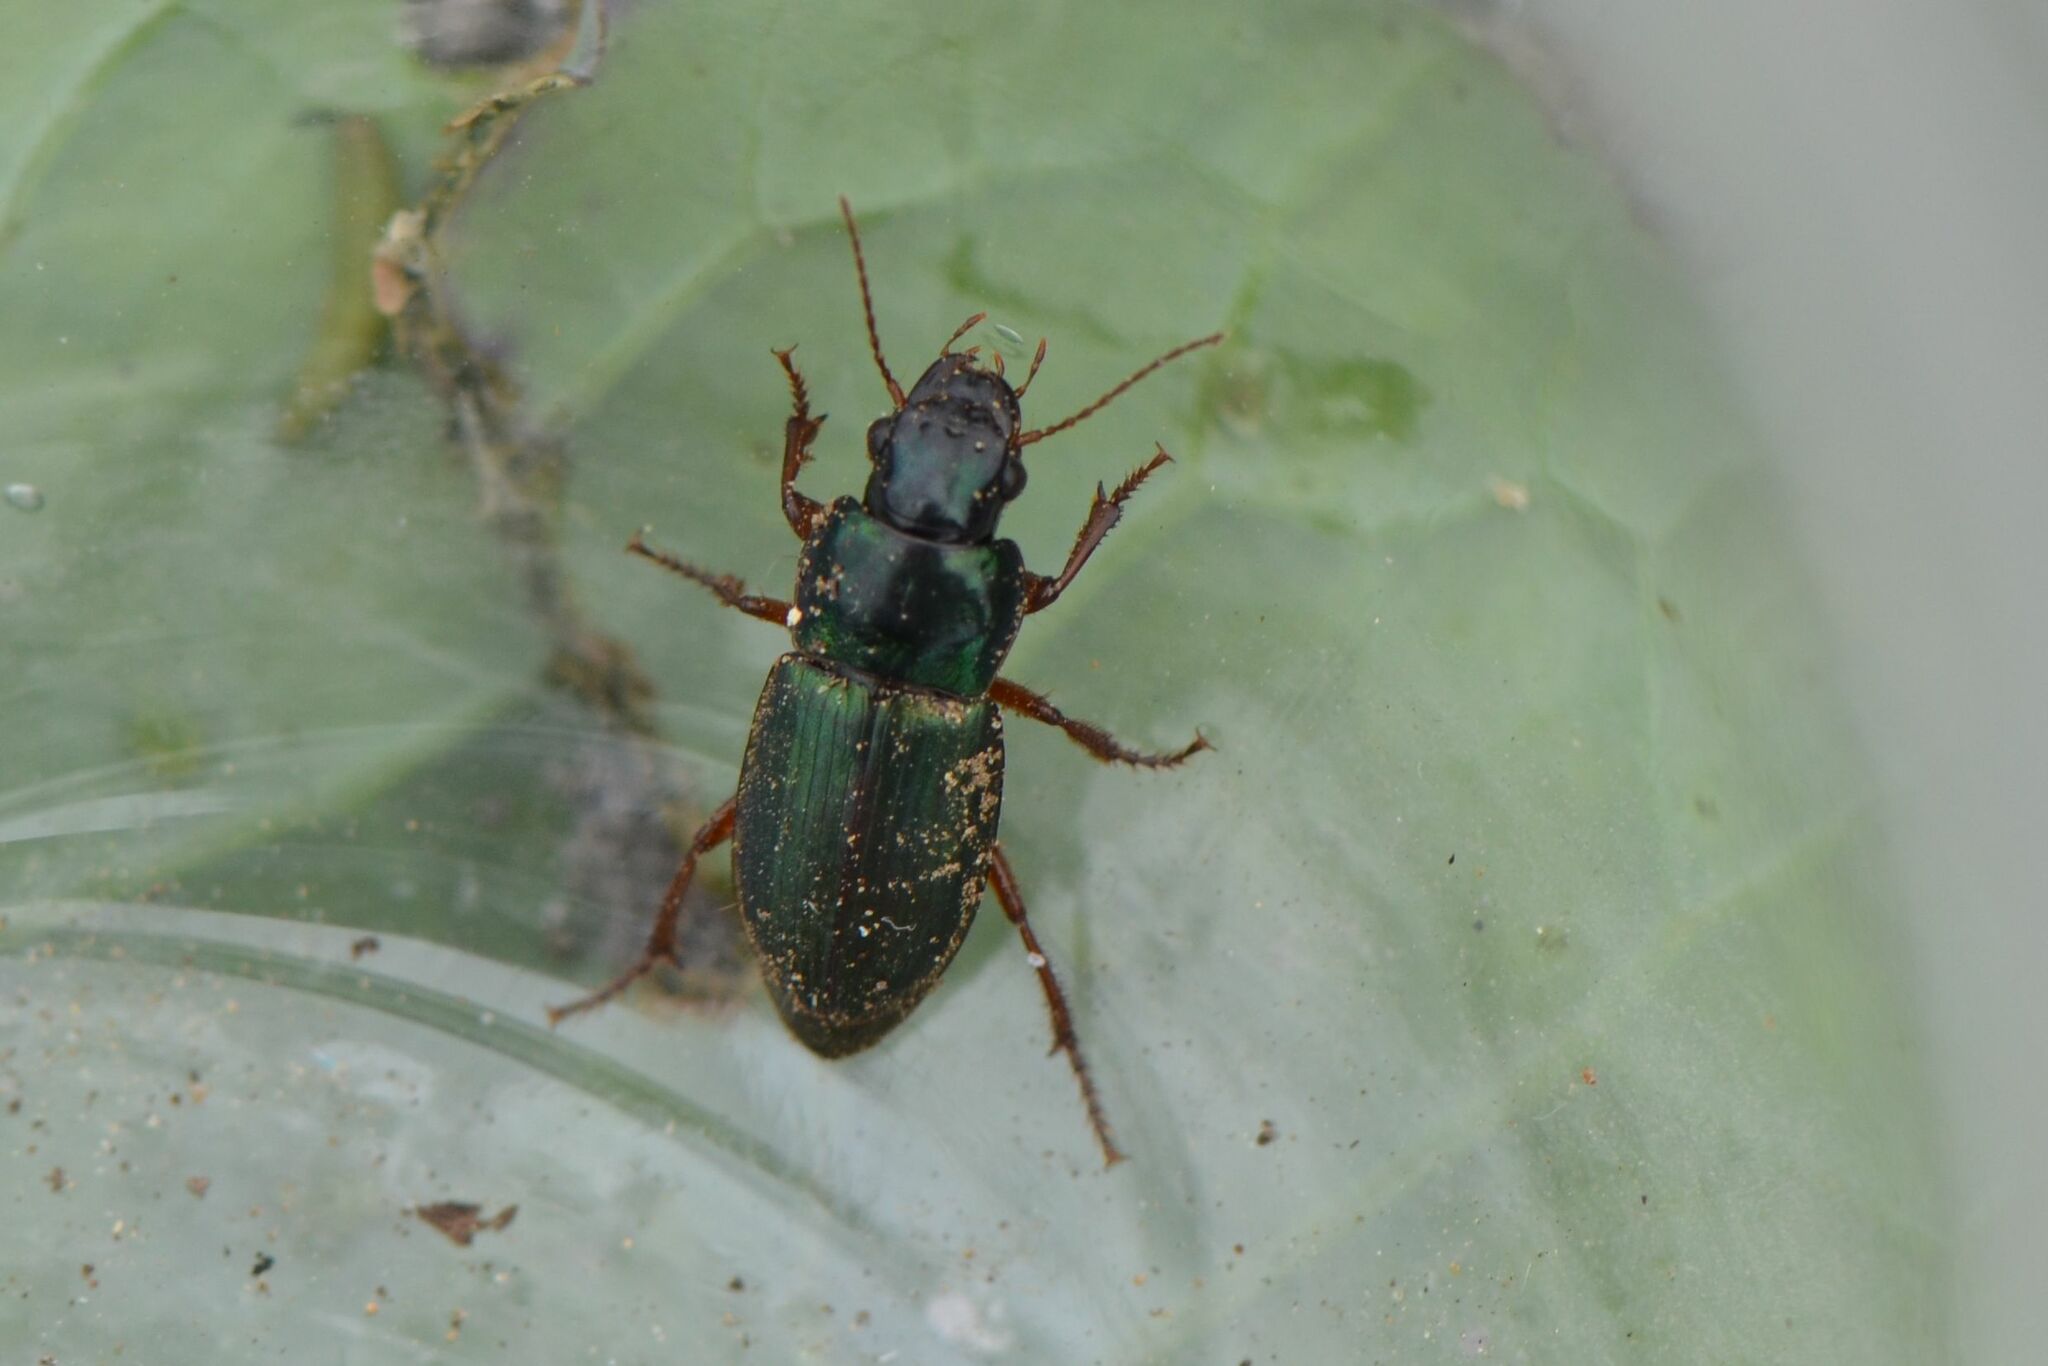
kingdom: Animalia
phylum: Arthropoda
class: Insecta
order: Coleoptera
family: Carabidae
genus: Harpalus
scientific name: Harpalus affinis
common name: Polychrome harp ground beetle
